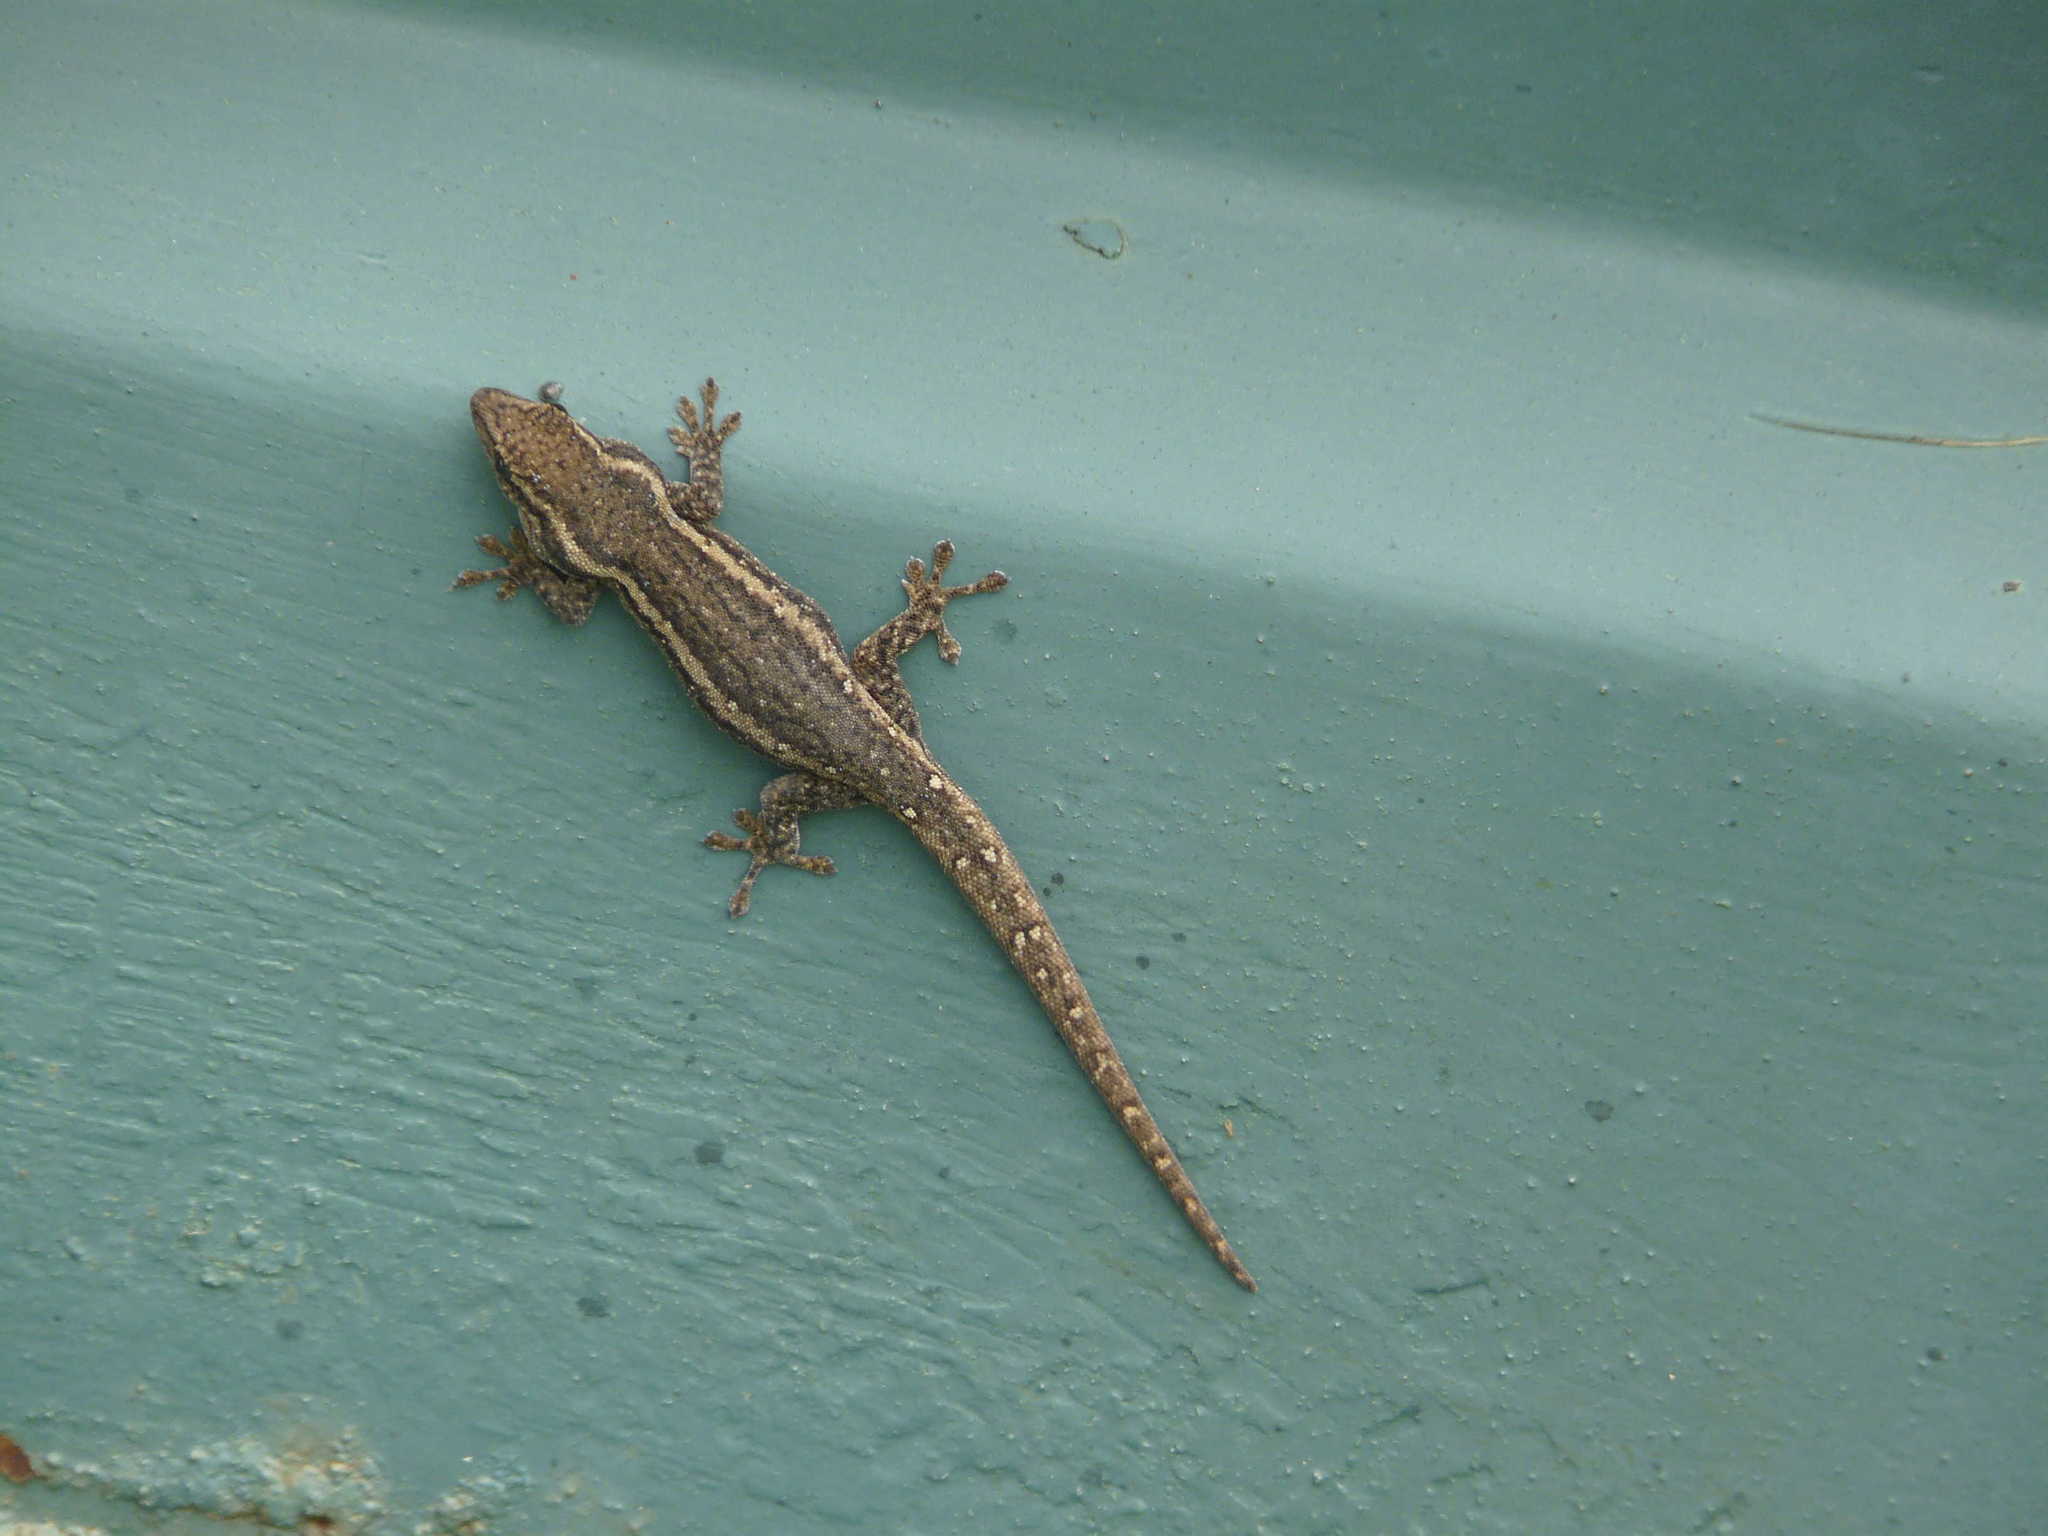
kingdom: Animalia
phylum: Chordata
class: Squamata
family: Gekkonidae
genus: Lygodactylus
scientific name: Lygodactylus capensis
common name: Cape dwarf gecko
